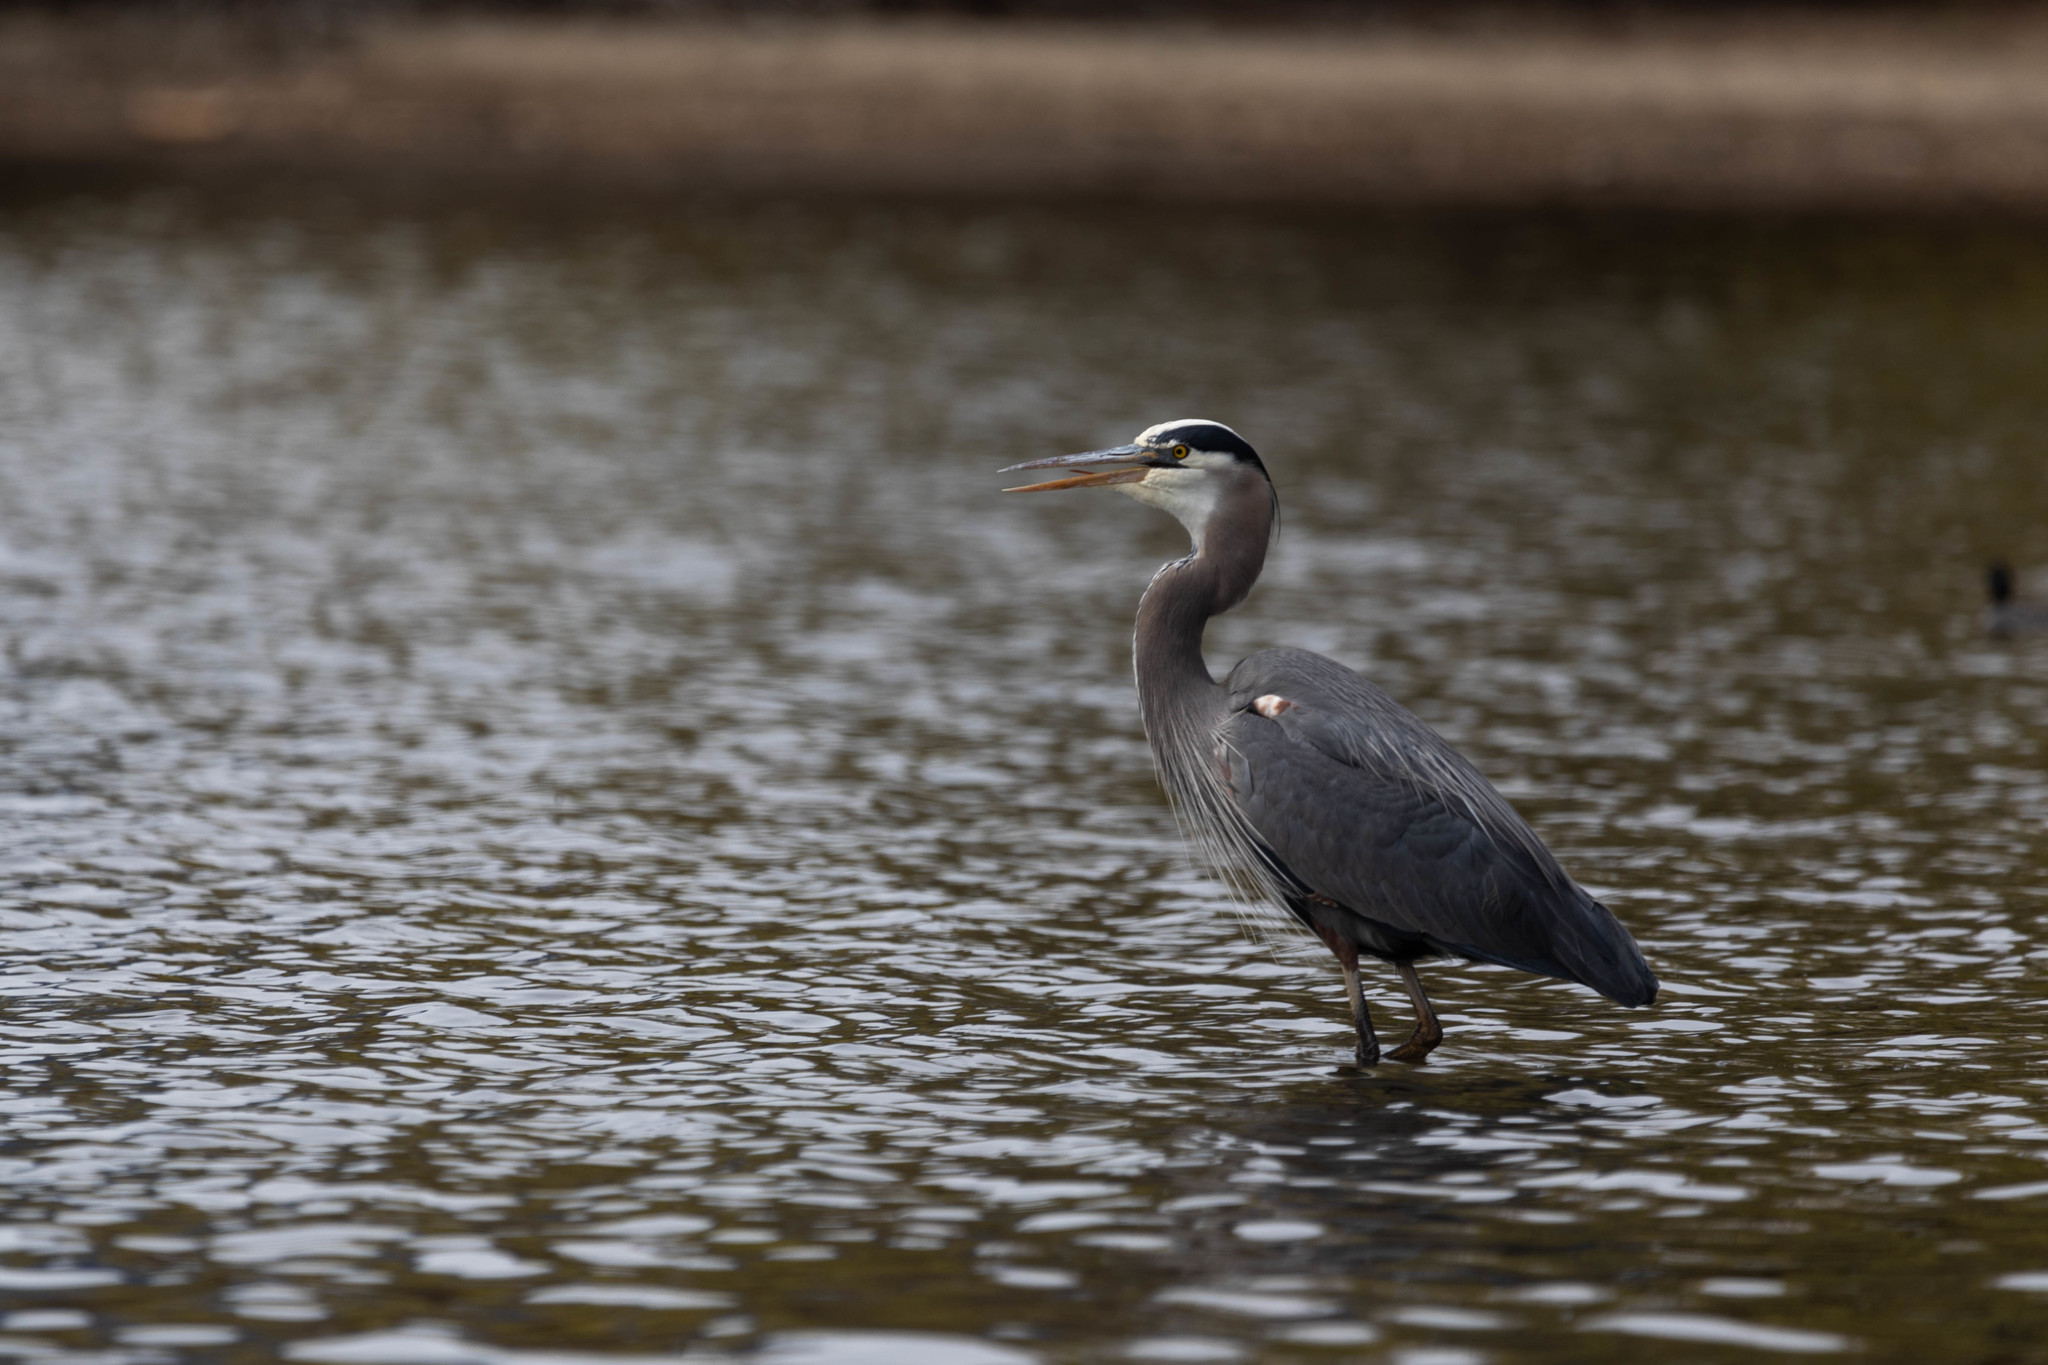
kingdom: Animalia
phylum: Chordata
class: Aves
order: Pelecaniformes
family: Ardeidae
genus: Ardea
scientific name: Ardea herodias
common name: Great blue heron
